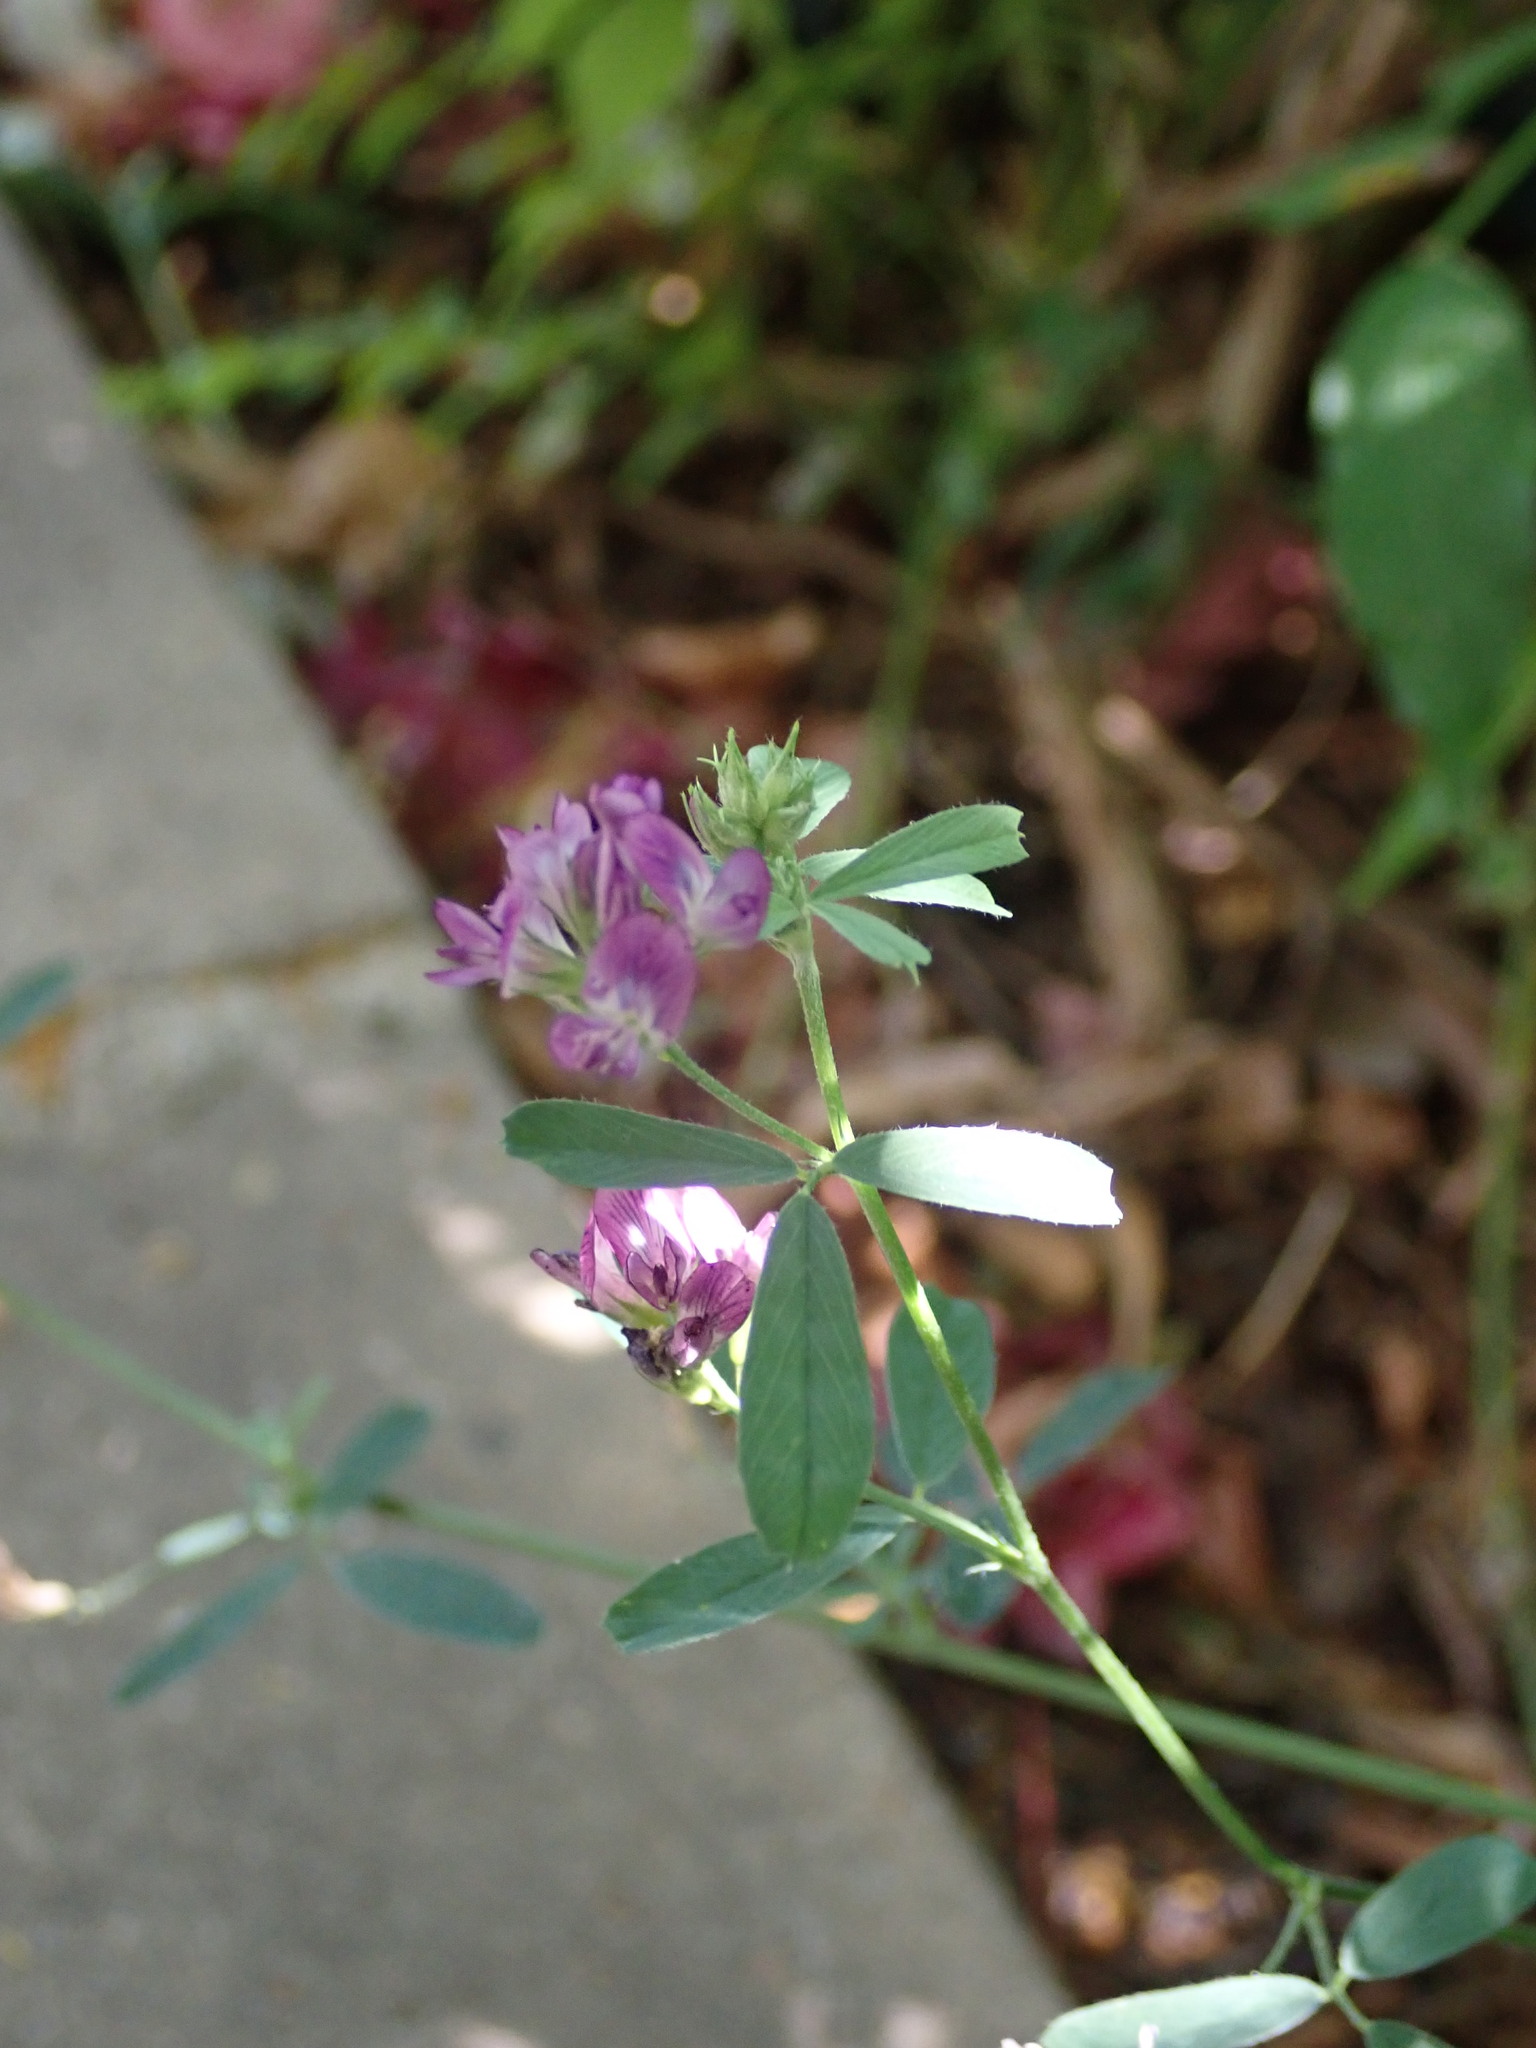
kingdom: Plantae
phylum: Tracheophyta
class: Magnoliopsida
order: Fabales
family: Fabaceae
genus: Medicago
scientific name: Medicago sativa
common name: Alfalfa
